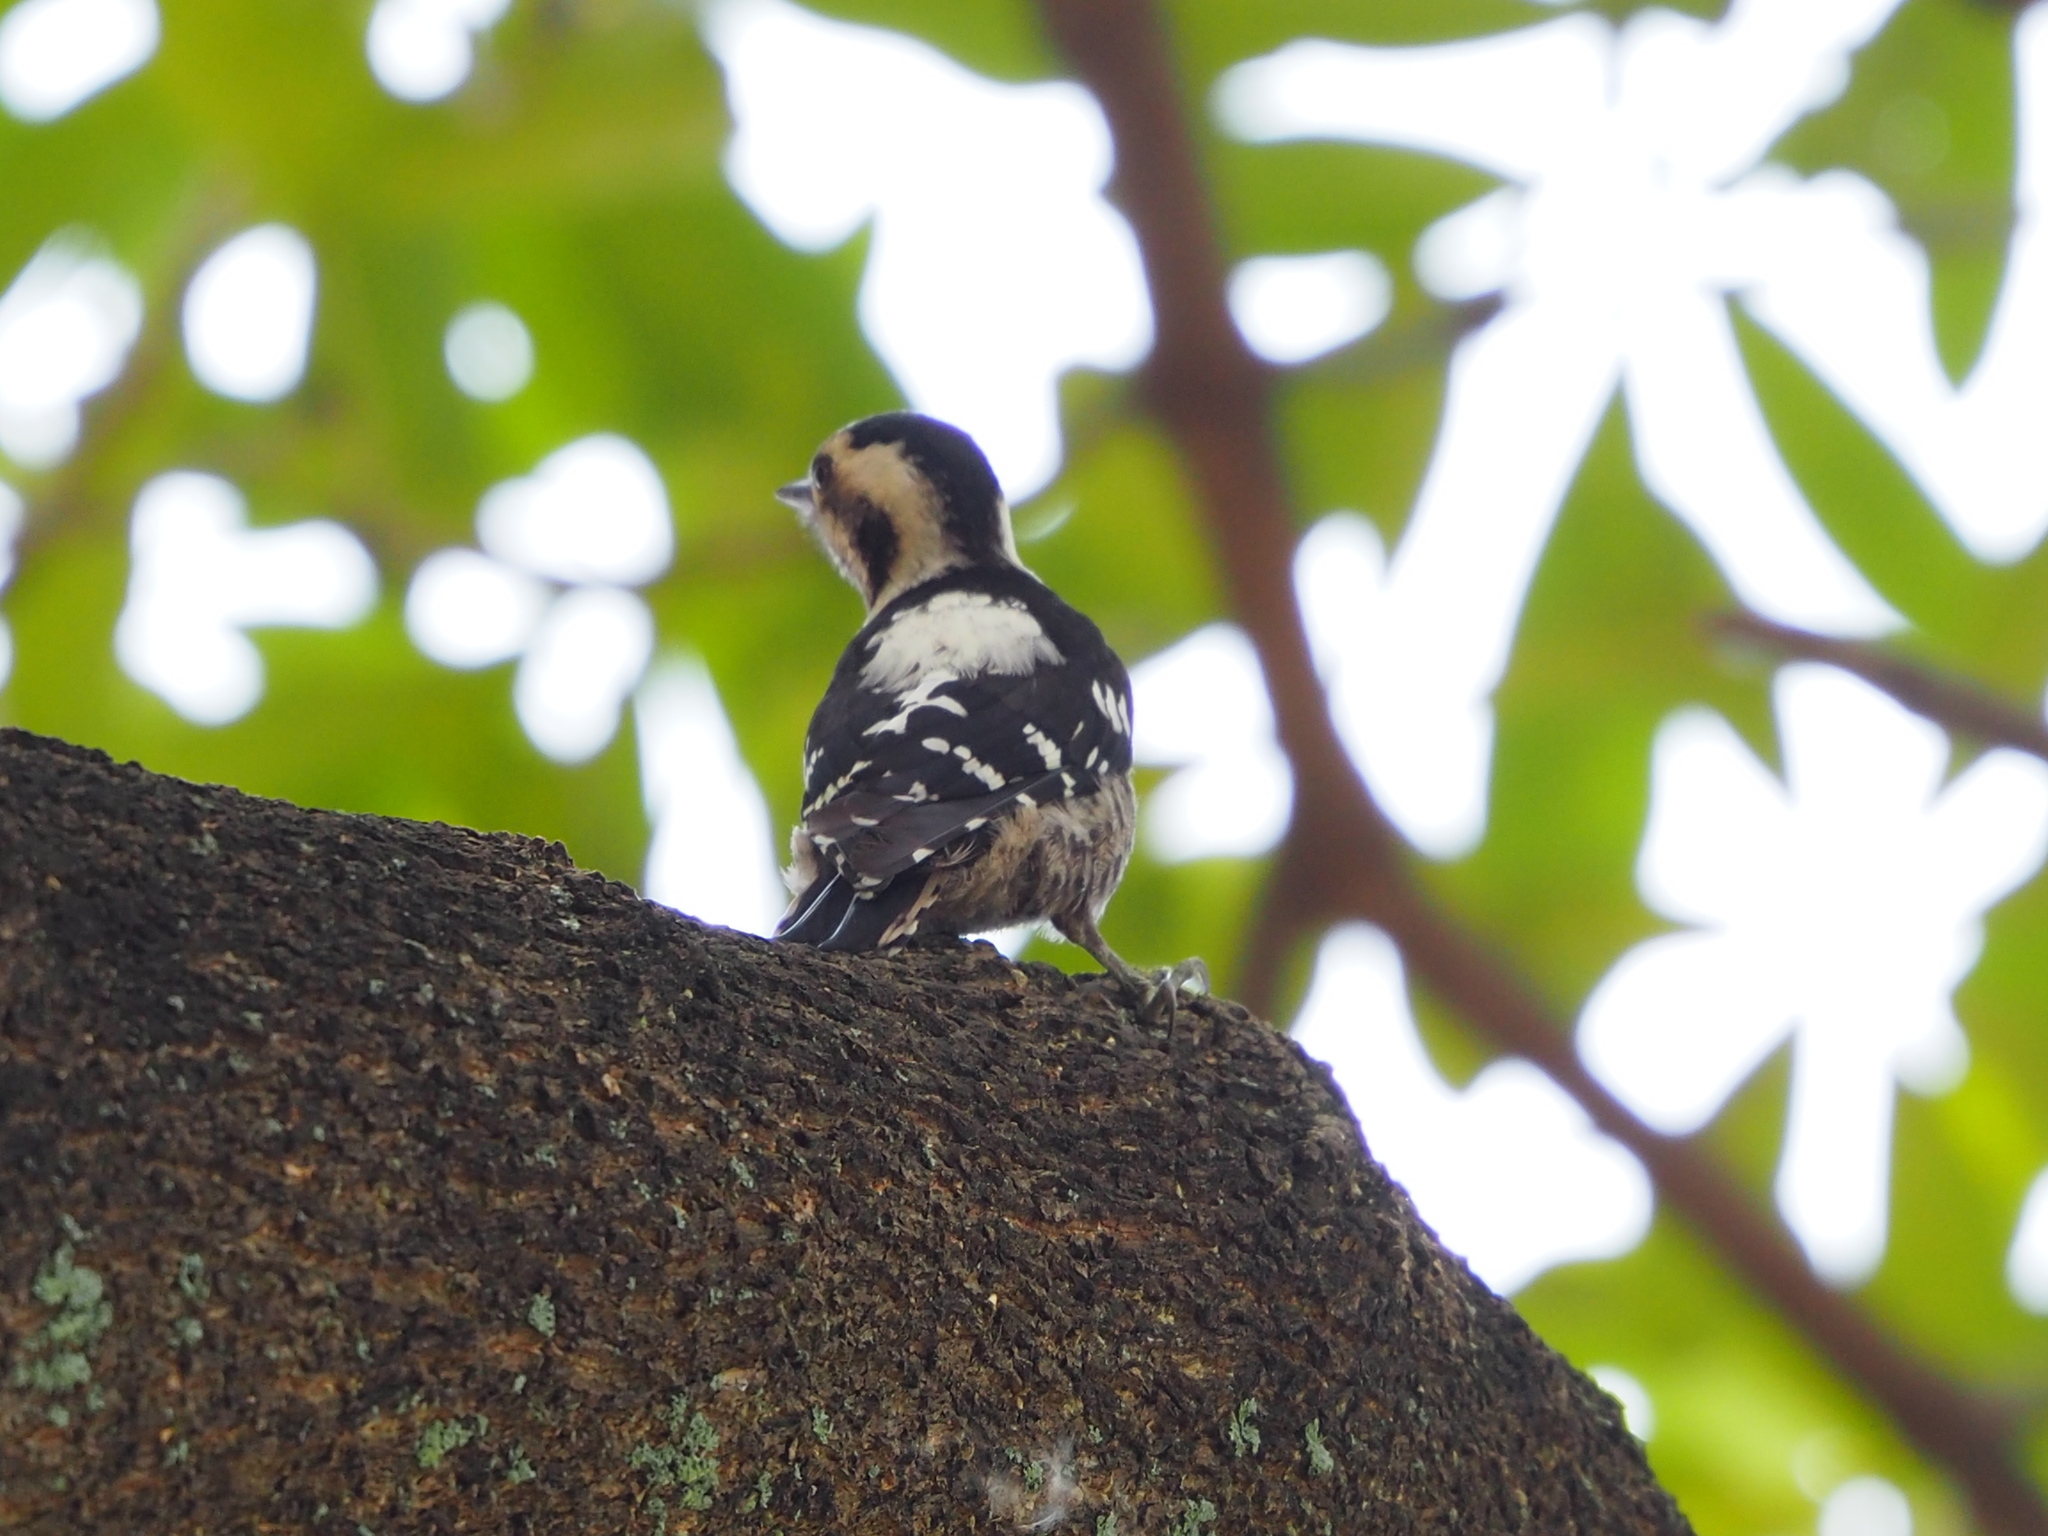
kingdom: Animalia
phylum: Chordata
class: Aves
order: Piciformes
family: Picidae
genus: Yungipicus
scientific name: Yungipicus canicapillus
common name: Grey-capped pygmy woodpecker
